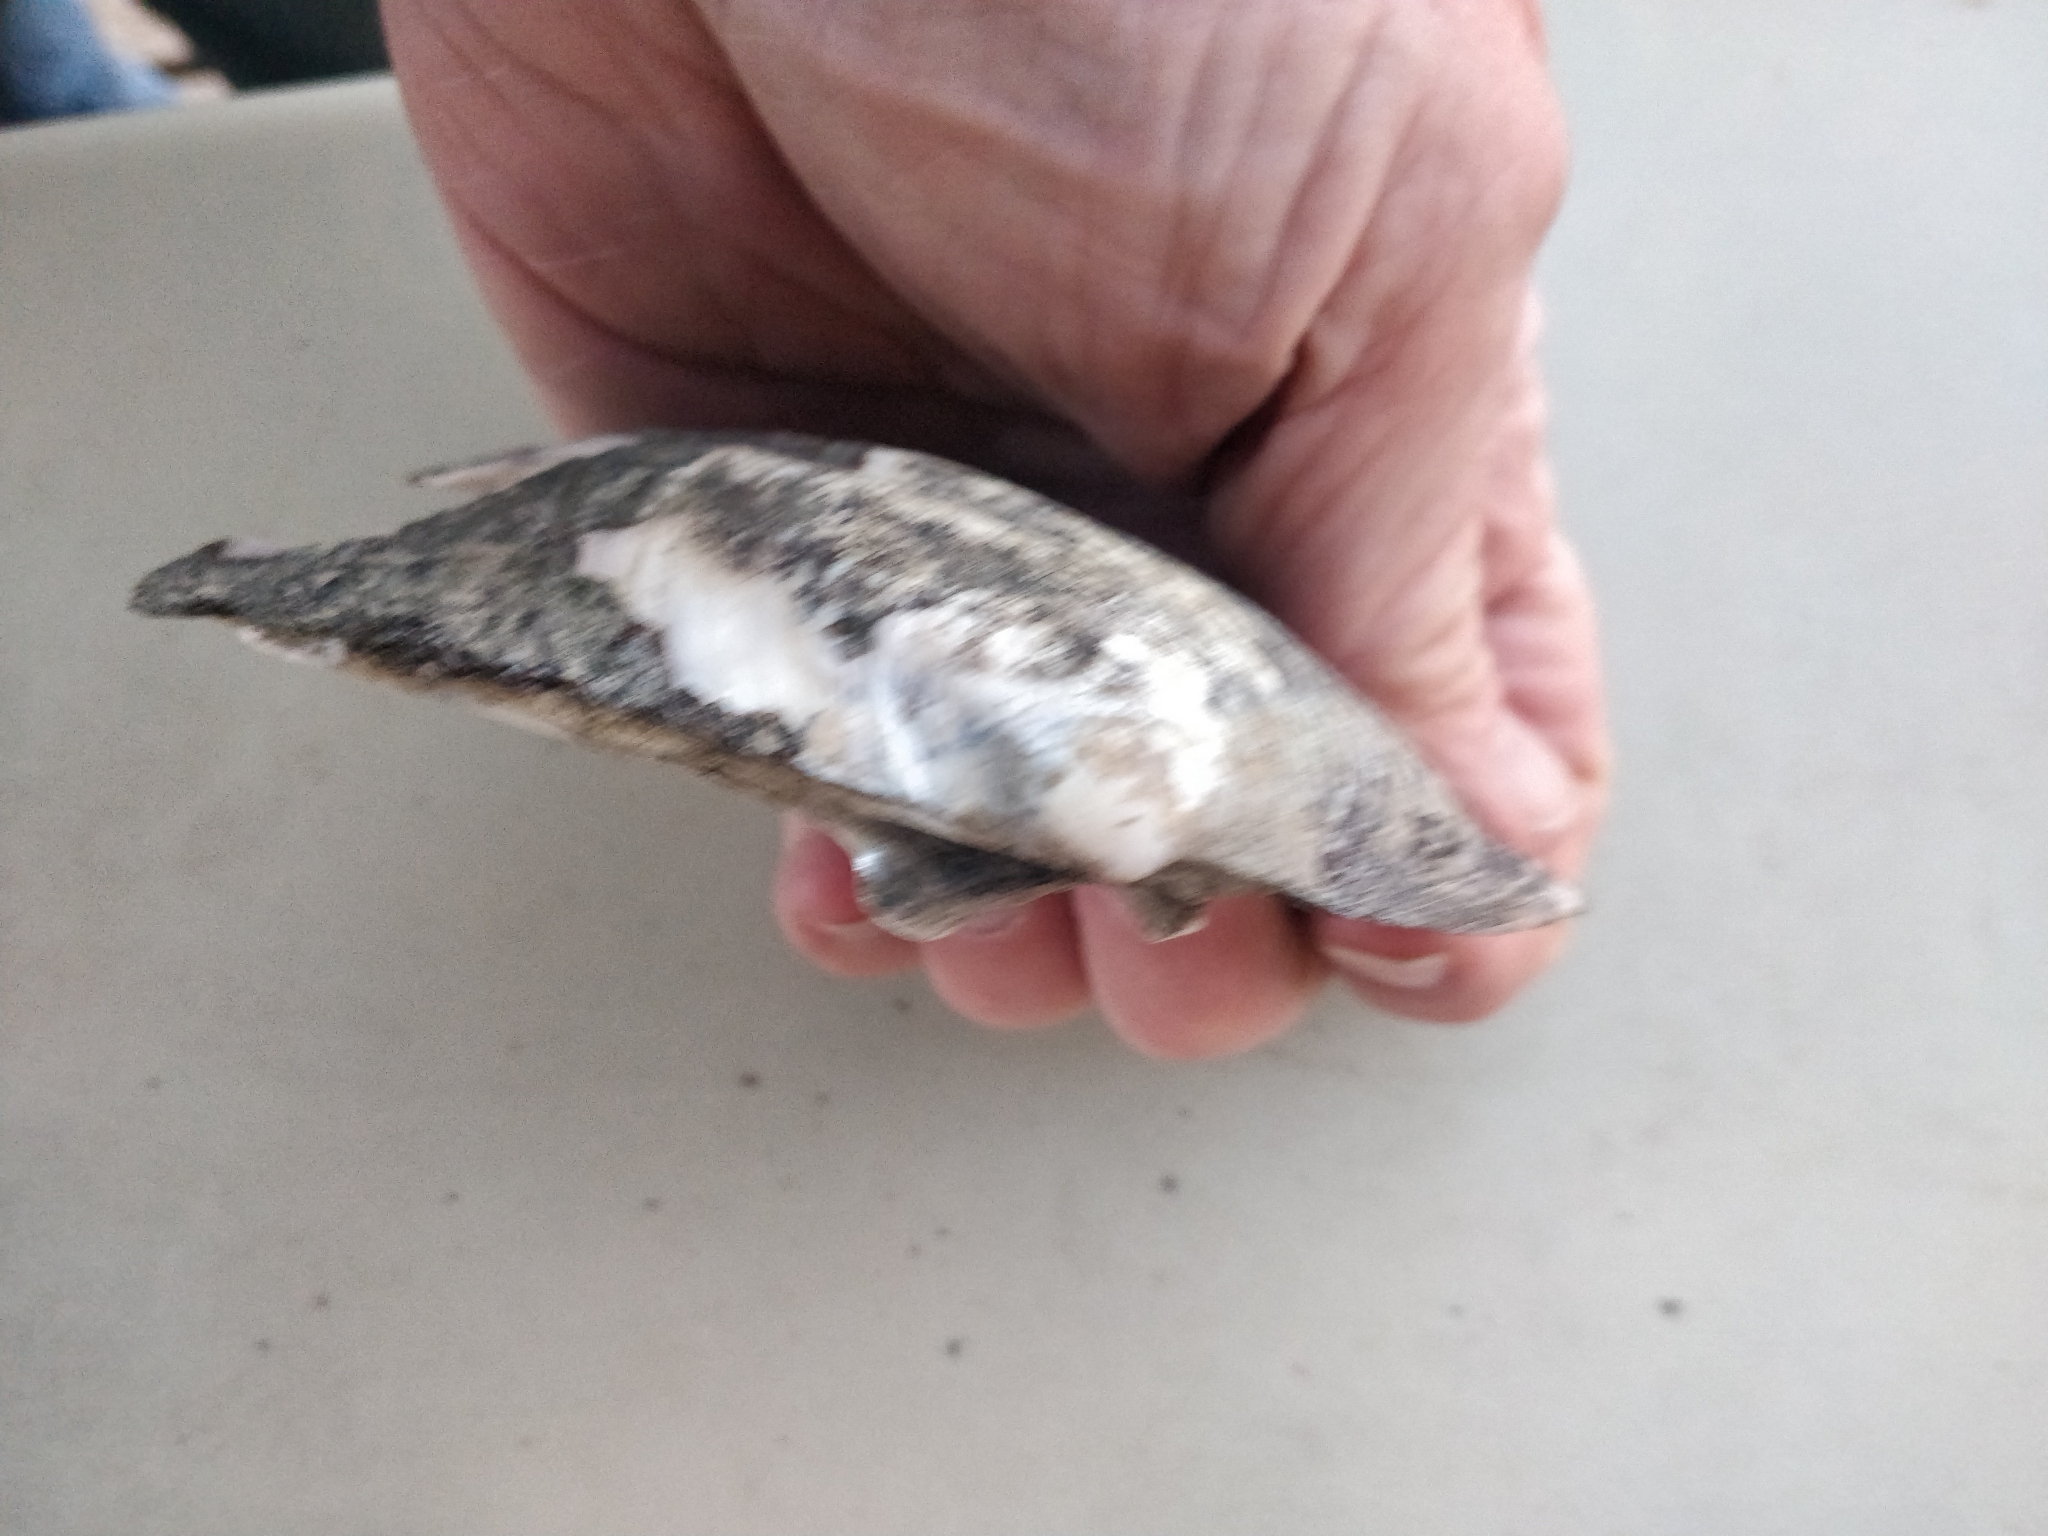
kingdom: Animalia
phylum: Mollusca
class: Bivalvia
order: Unionida
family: Unionidae
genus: Amblema
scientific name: Amblema plicata
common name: Threeridge
